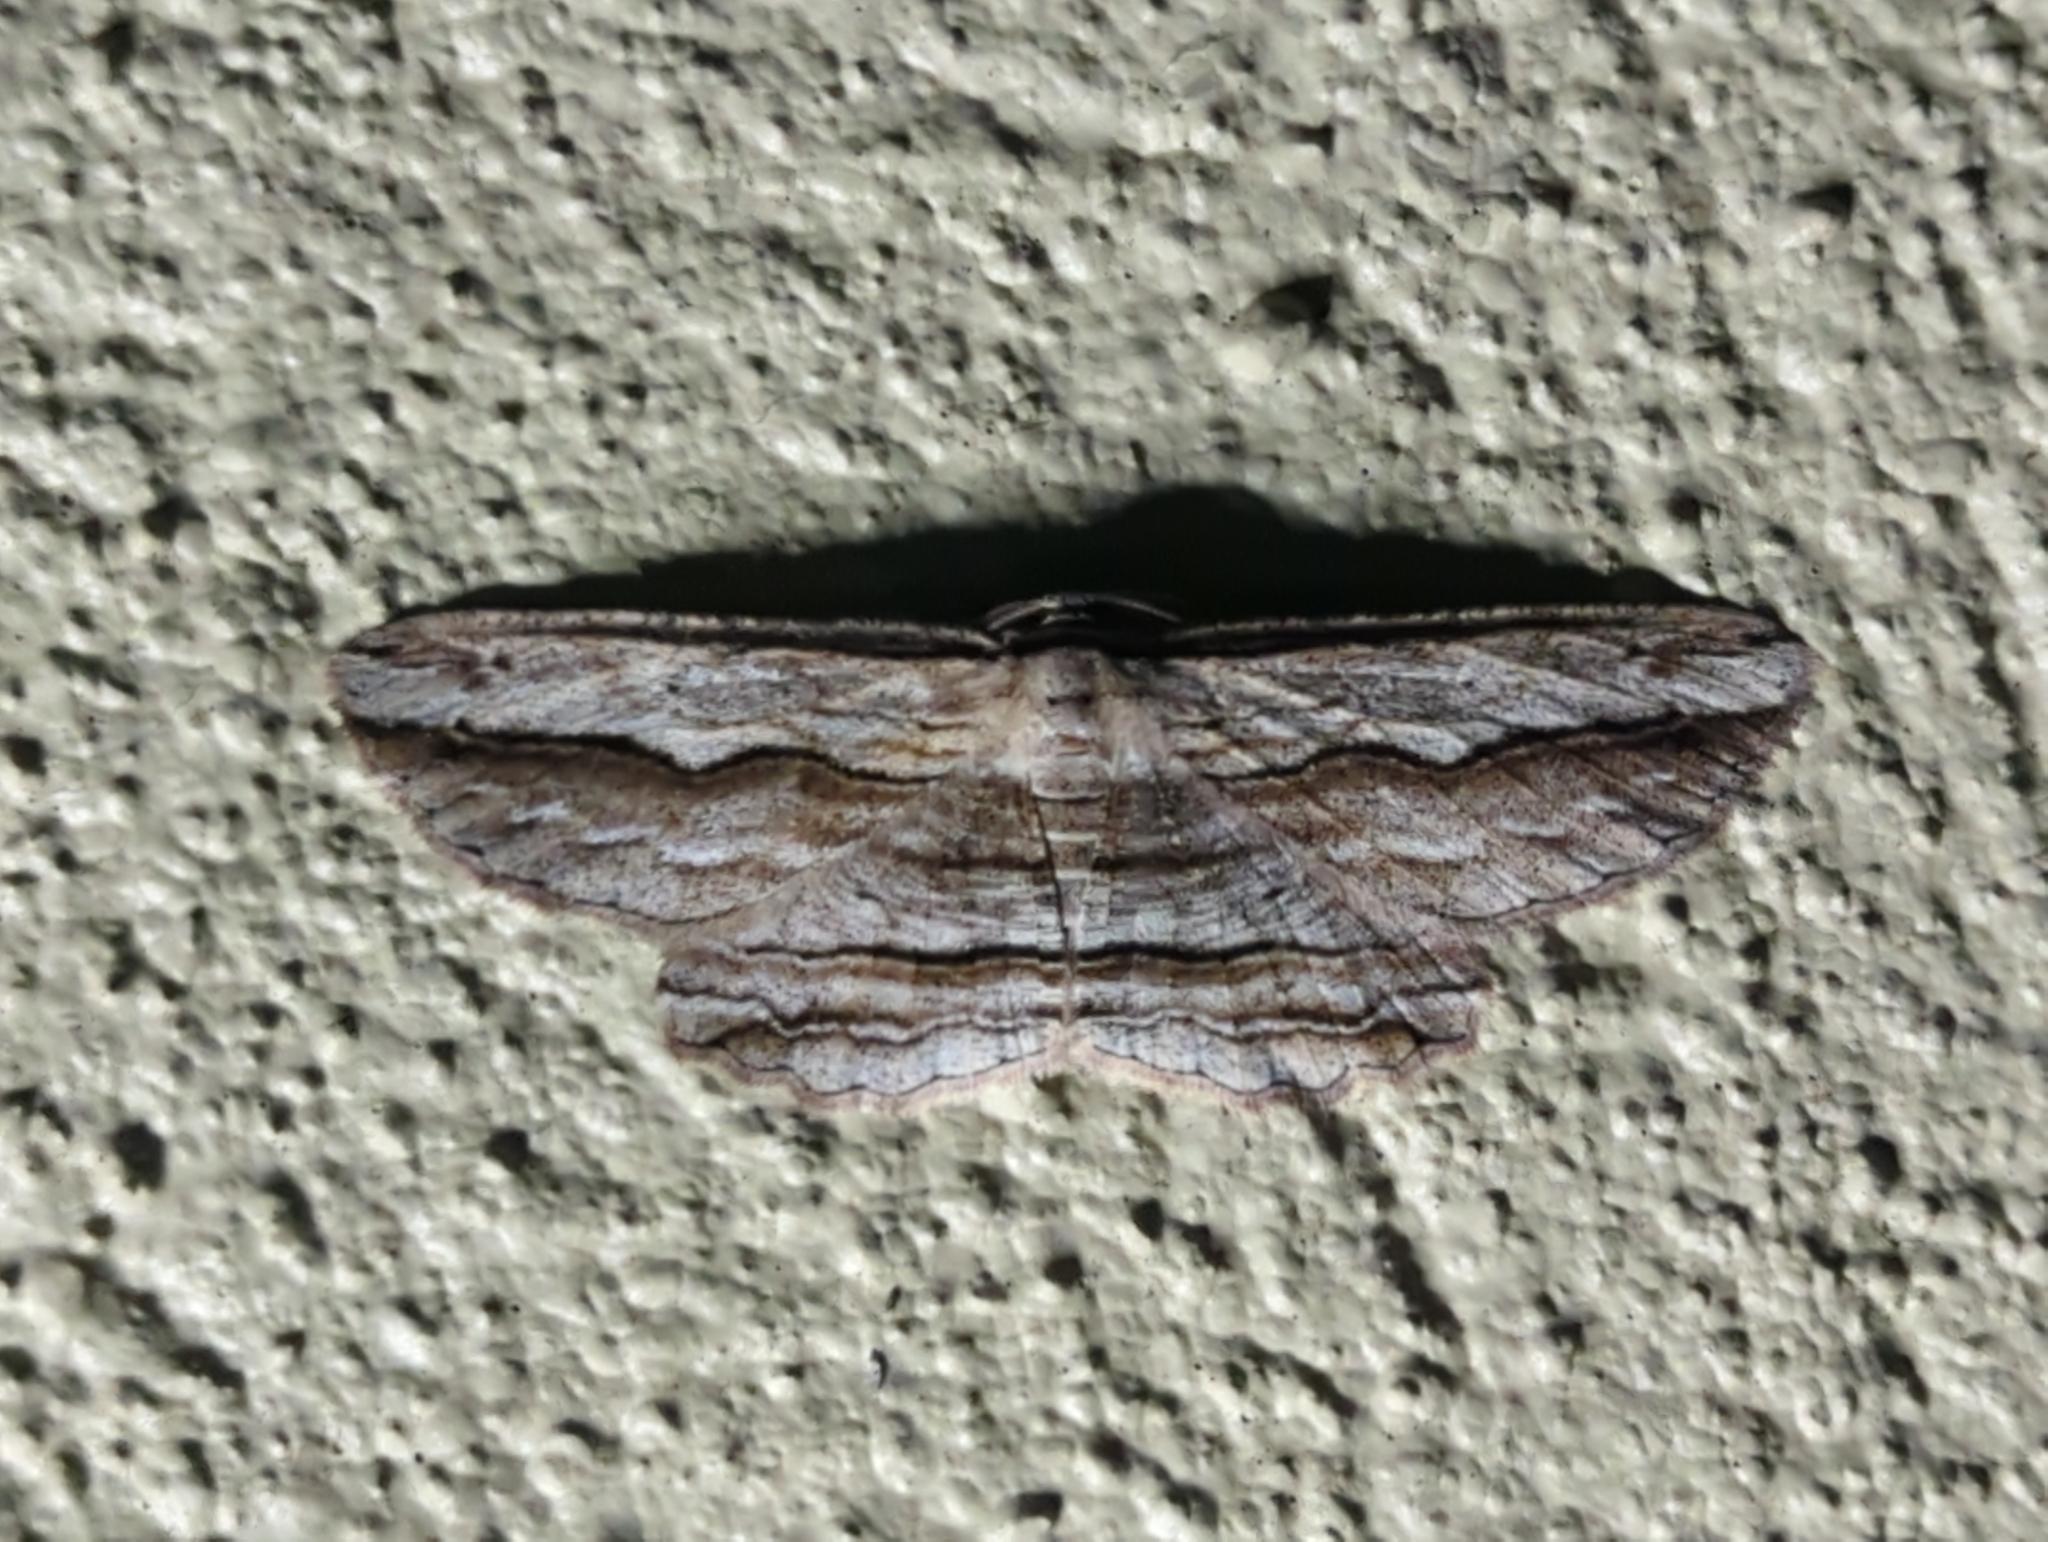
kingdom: Animalia
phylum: Arthropoda
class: Insecta
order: Lepidoptera
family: Geometridae
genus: Euphronarcha
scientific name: Euphronarcha luxaria
